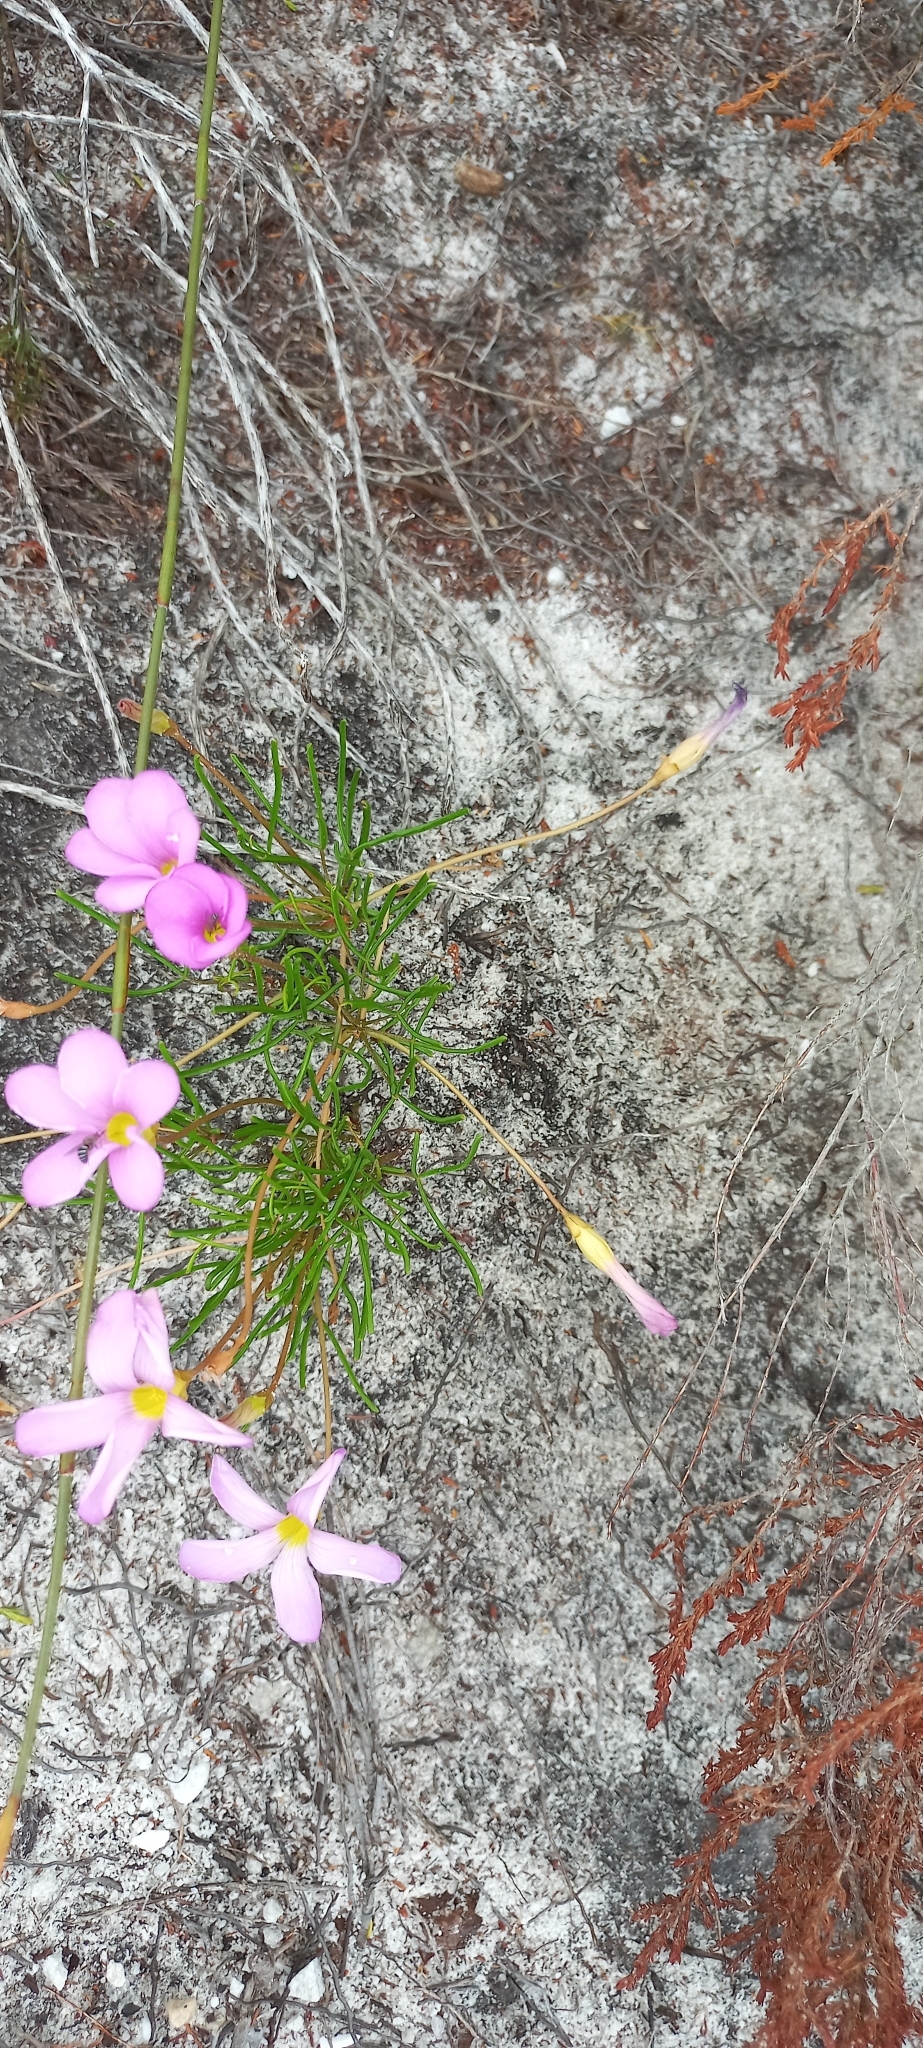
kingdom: Plantae
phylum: Tracheophyta
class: Magnoliopsida
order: Oxalidales
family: Oxalidaceae
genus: Oxalis
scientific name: Oxalis polyphylla
